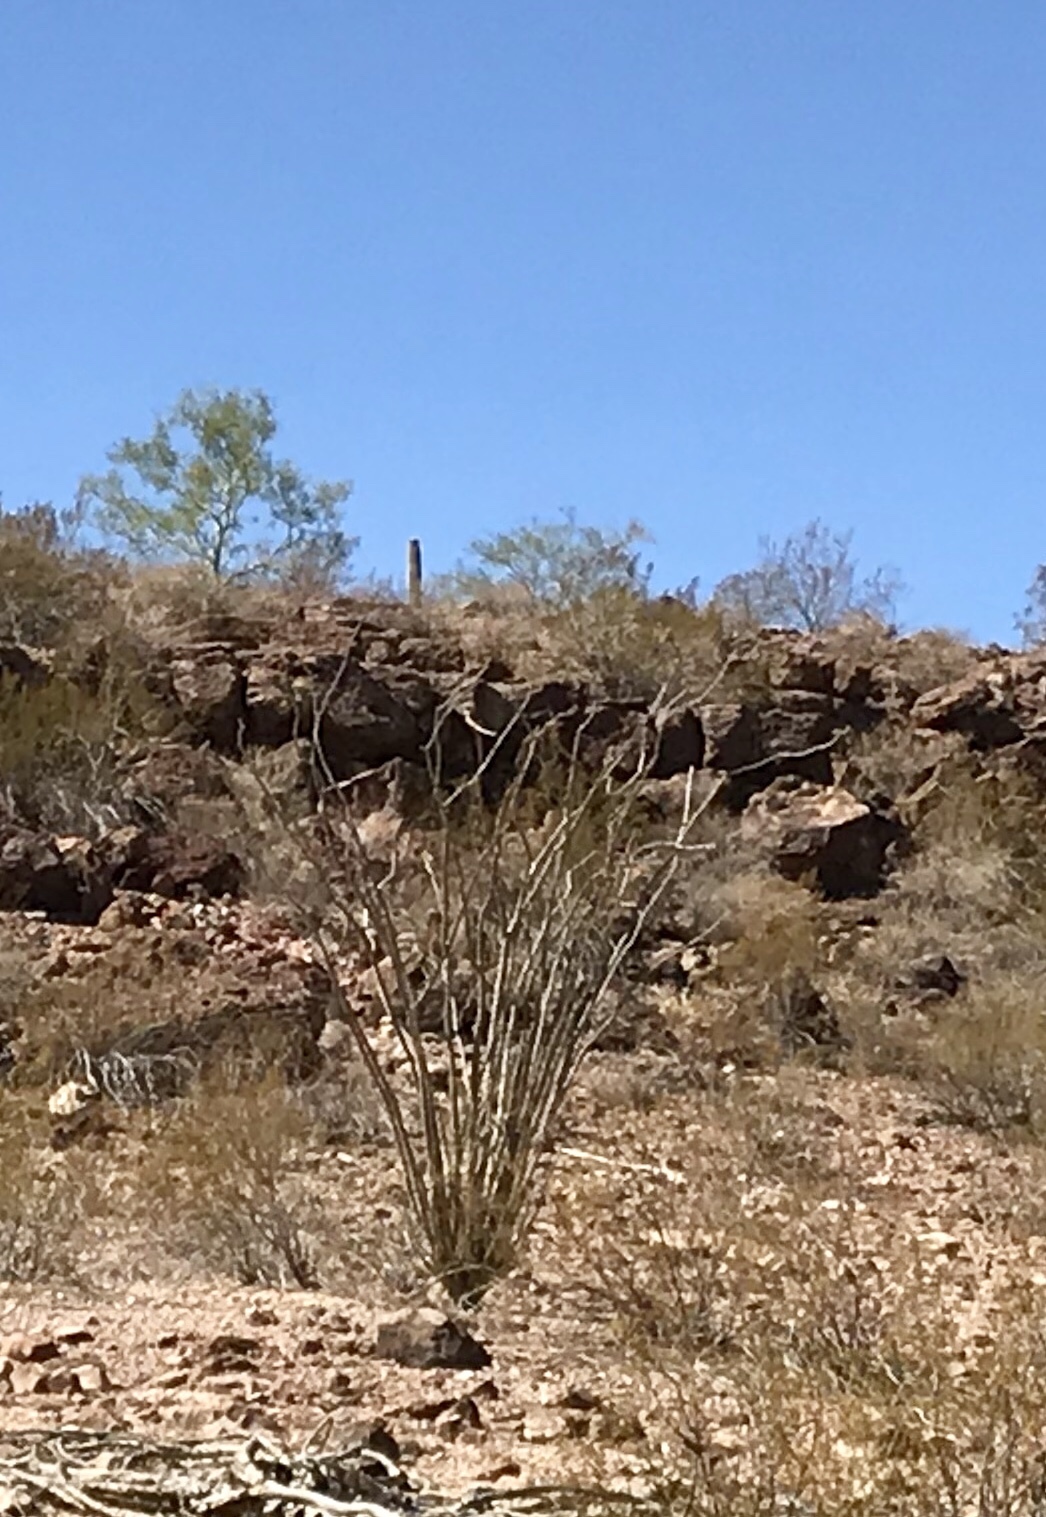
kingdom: Plantae
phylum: Tracheophyta
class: Magnoliopsida
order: Ericales
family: Fouquieriaceae
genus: Fouquieria
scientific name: Fouquieria splendens
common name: Vine-cactus
